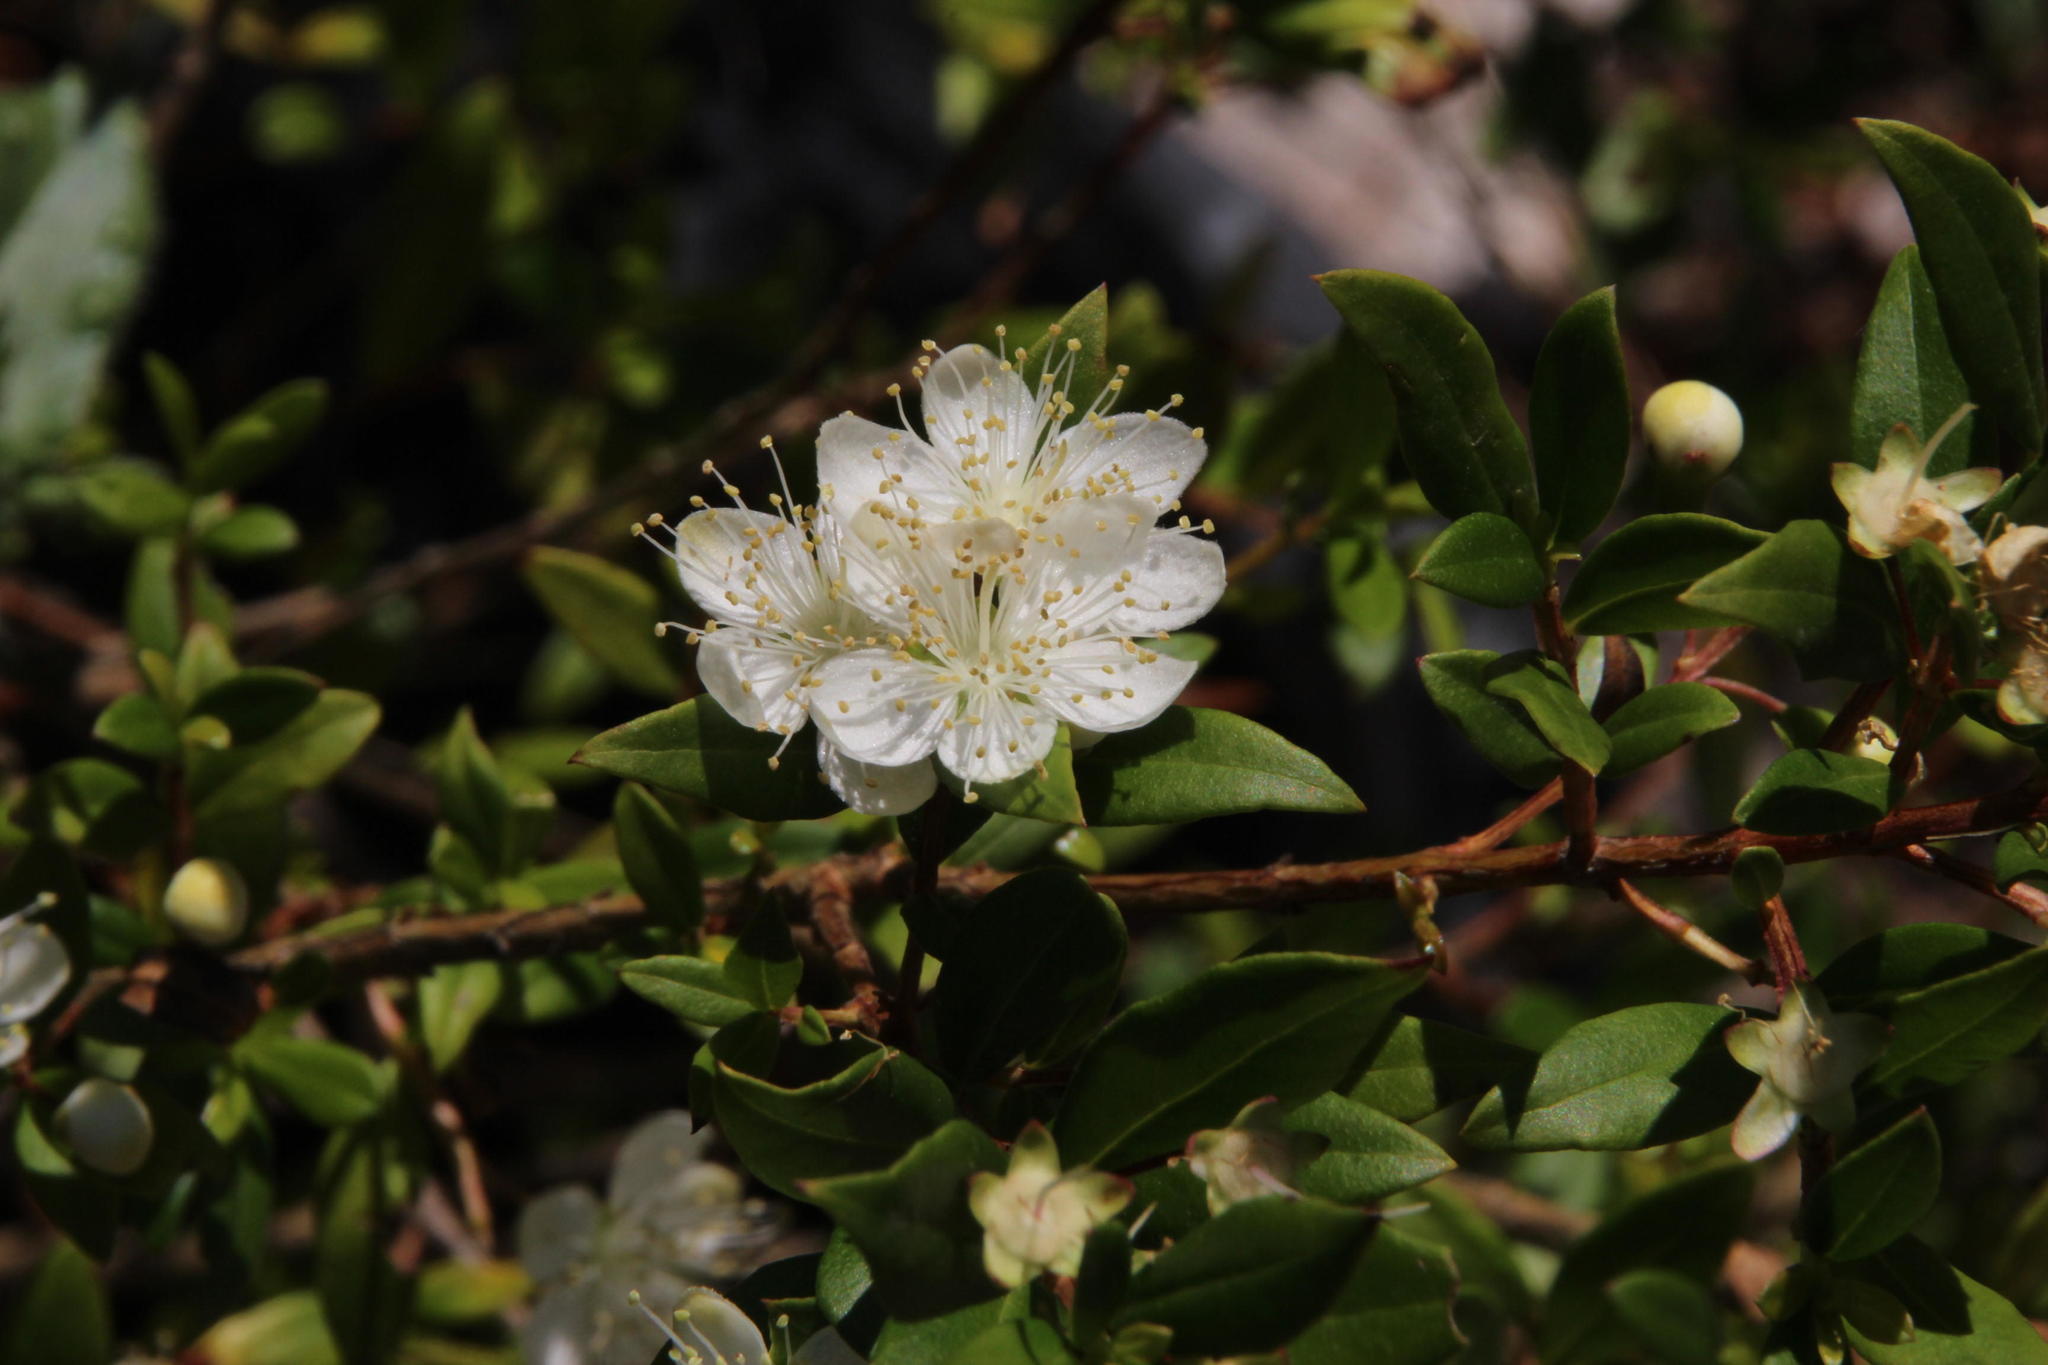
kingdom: Plantae
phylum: Tracheophyta
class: Magnoliopsida
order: Myrtales
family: Myrtaceae
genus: Myrtus
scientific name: Myrtus communis
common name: Myrtle
